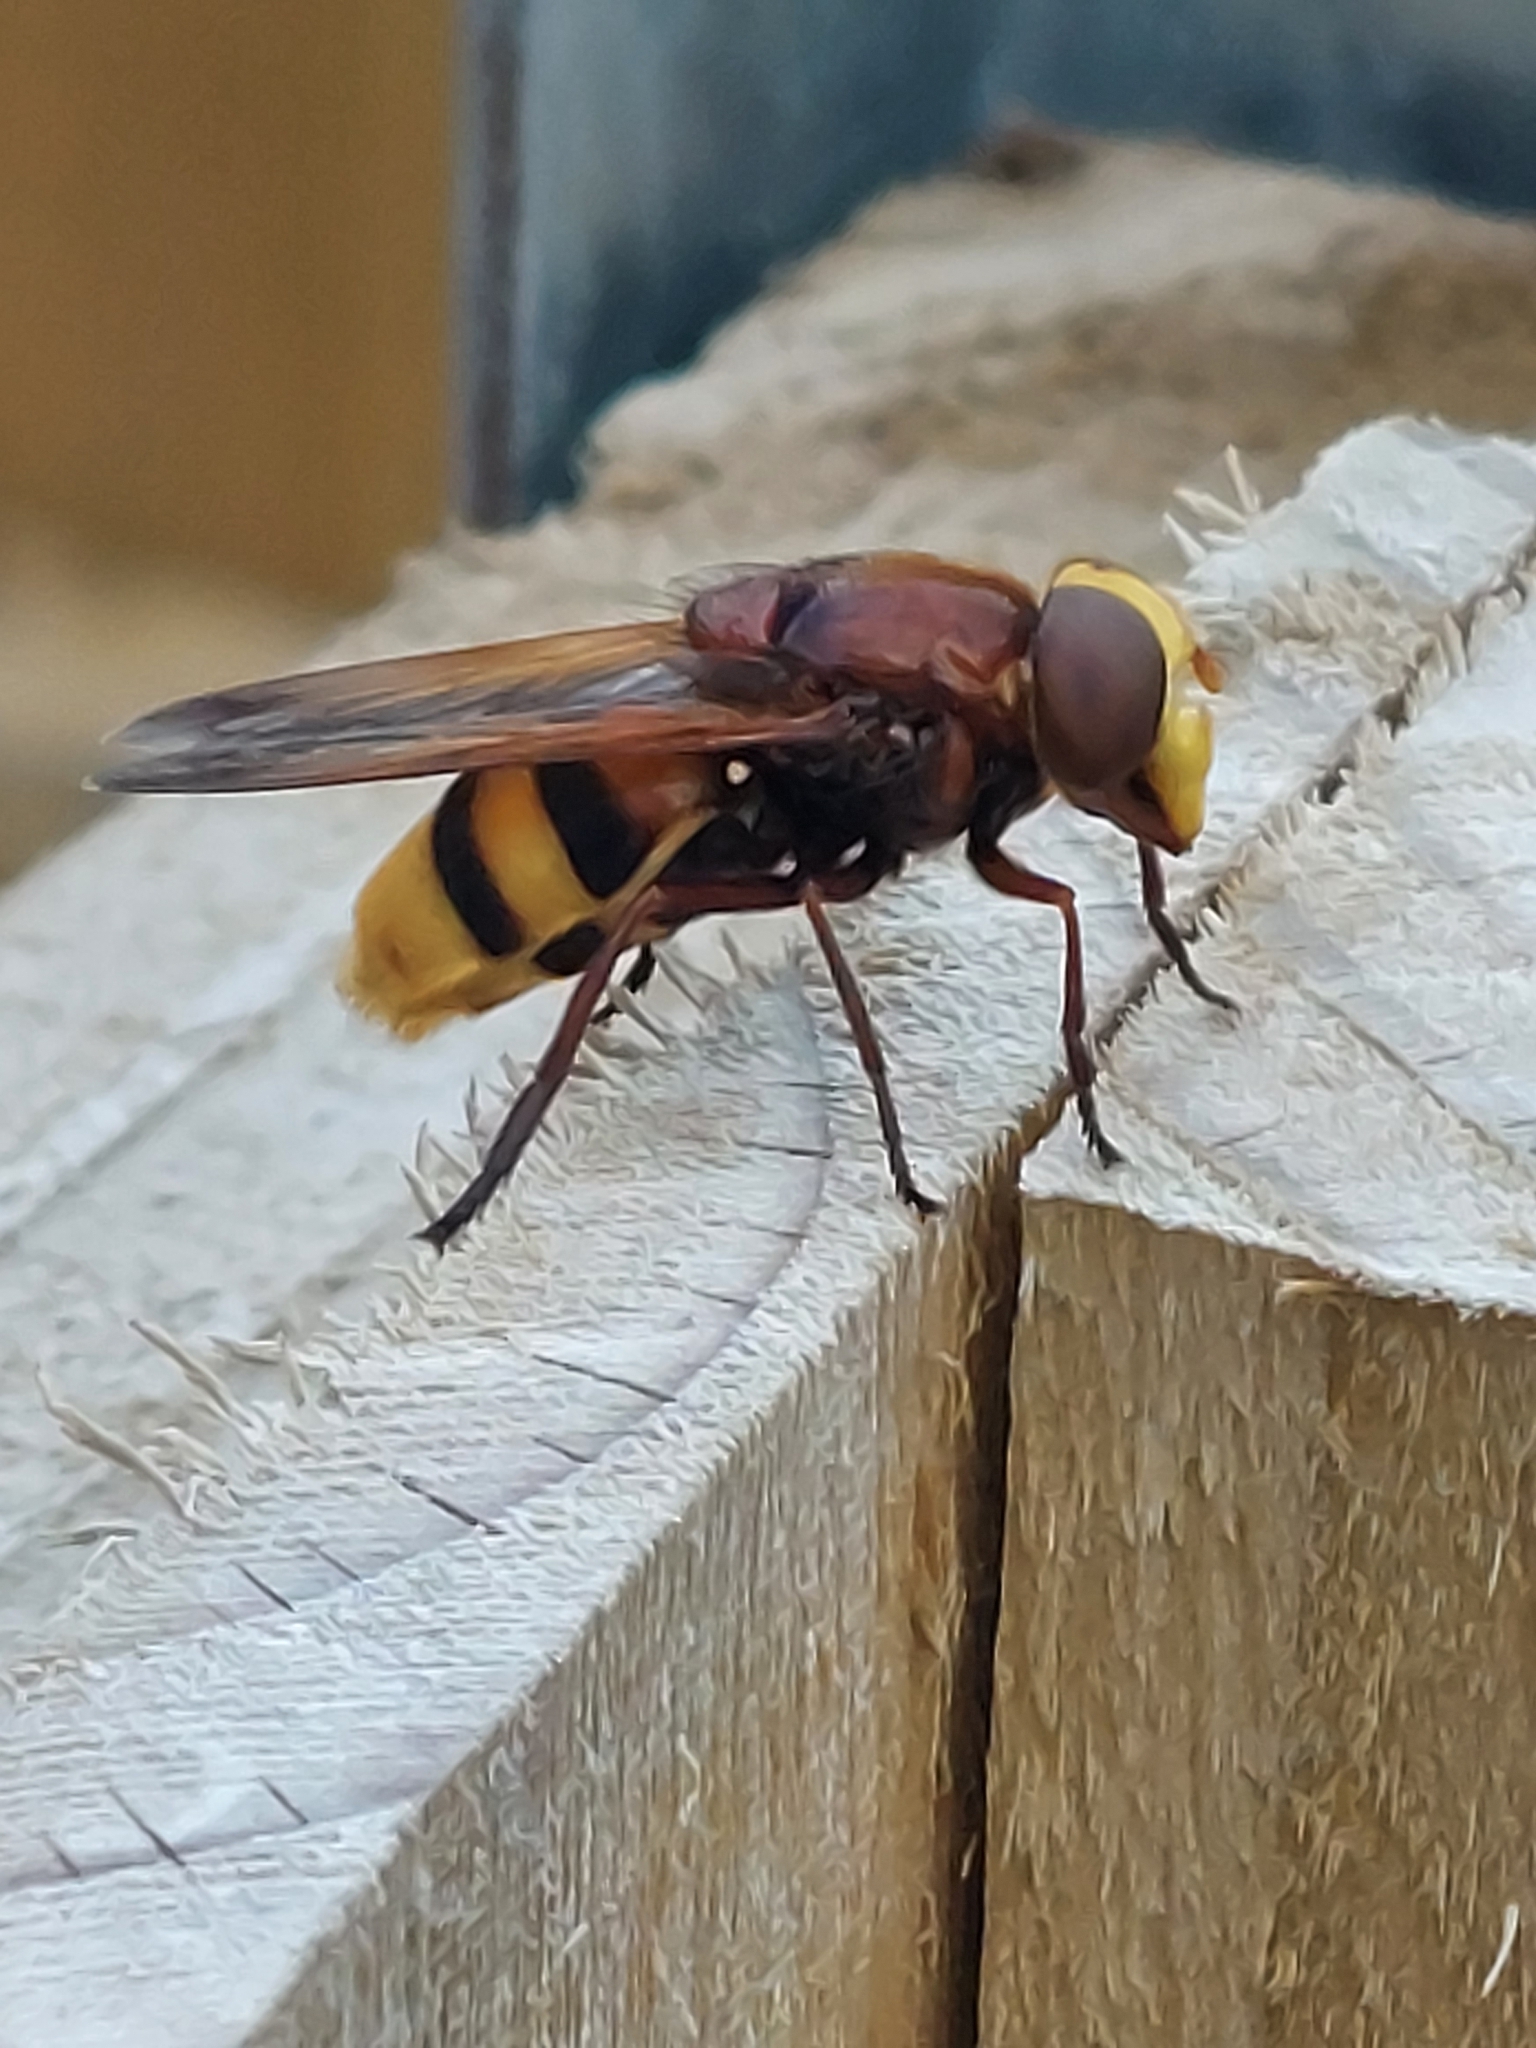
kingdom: Animalia
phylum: Arthropoda
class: Insecta
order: Diptera
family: Syrphidae
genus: Volucella
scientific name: Volucella zonaria
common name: Hornet hoverfly
